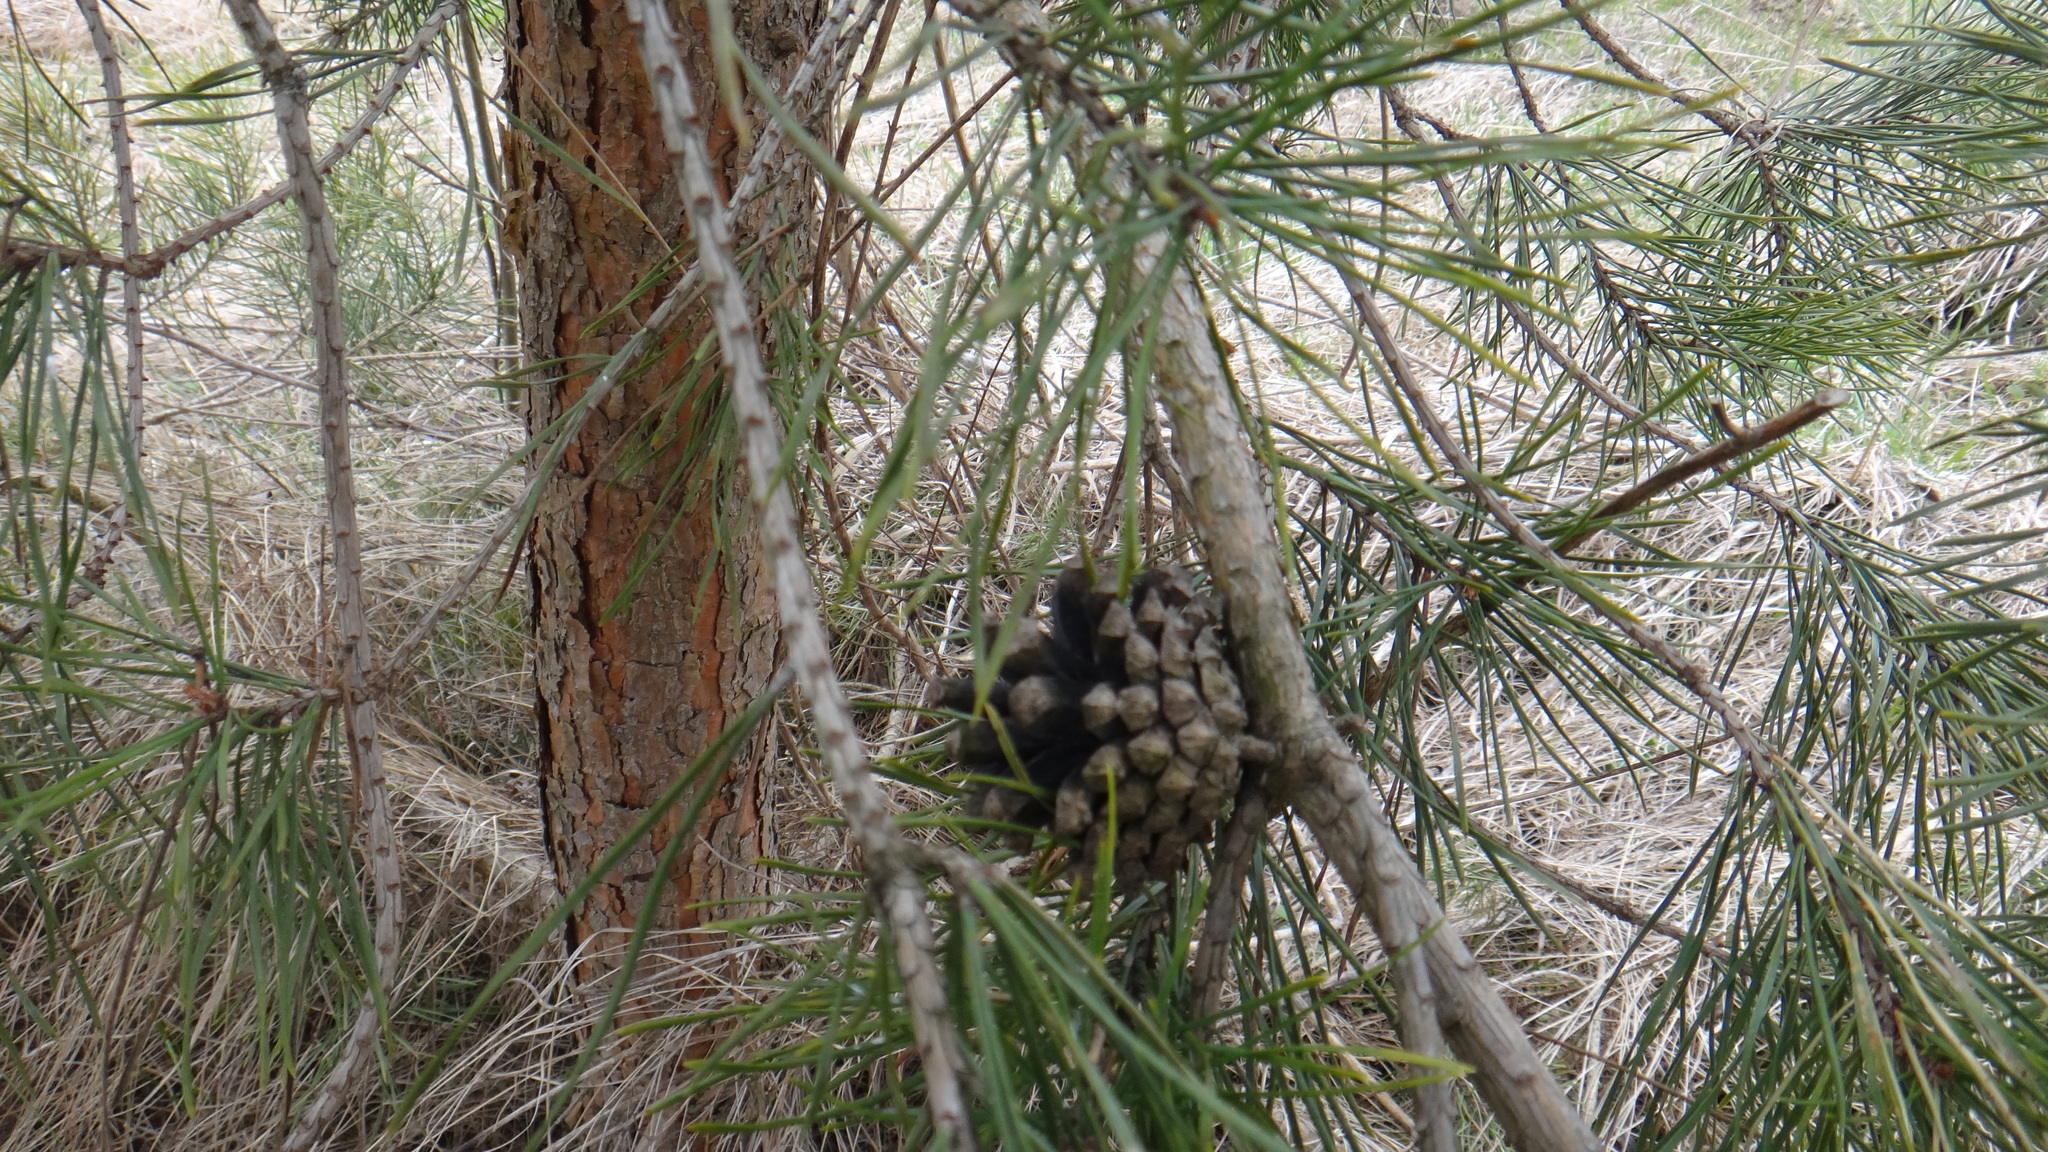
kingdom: Plantae
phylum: Tracheophyta
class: Pinopsida
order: Pinales
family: Pinaceae
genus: Pinus
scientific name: Pinus sylvestris
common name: Scots pine
